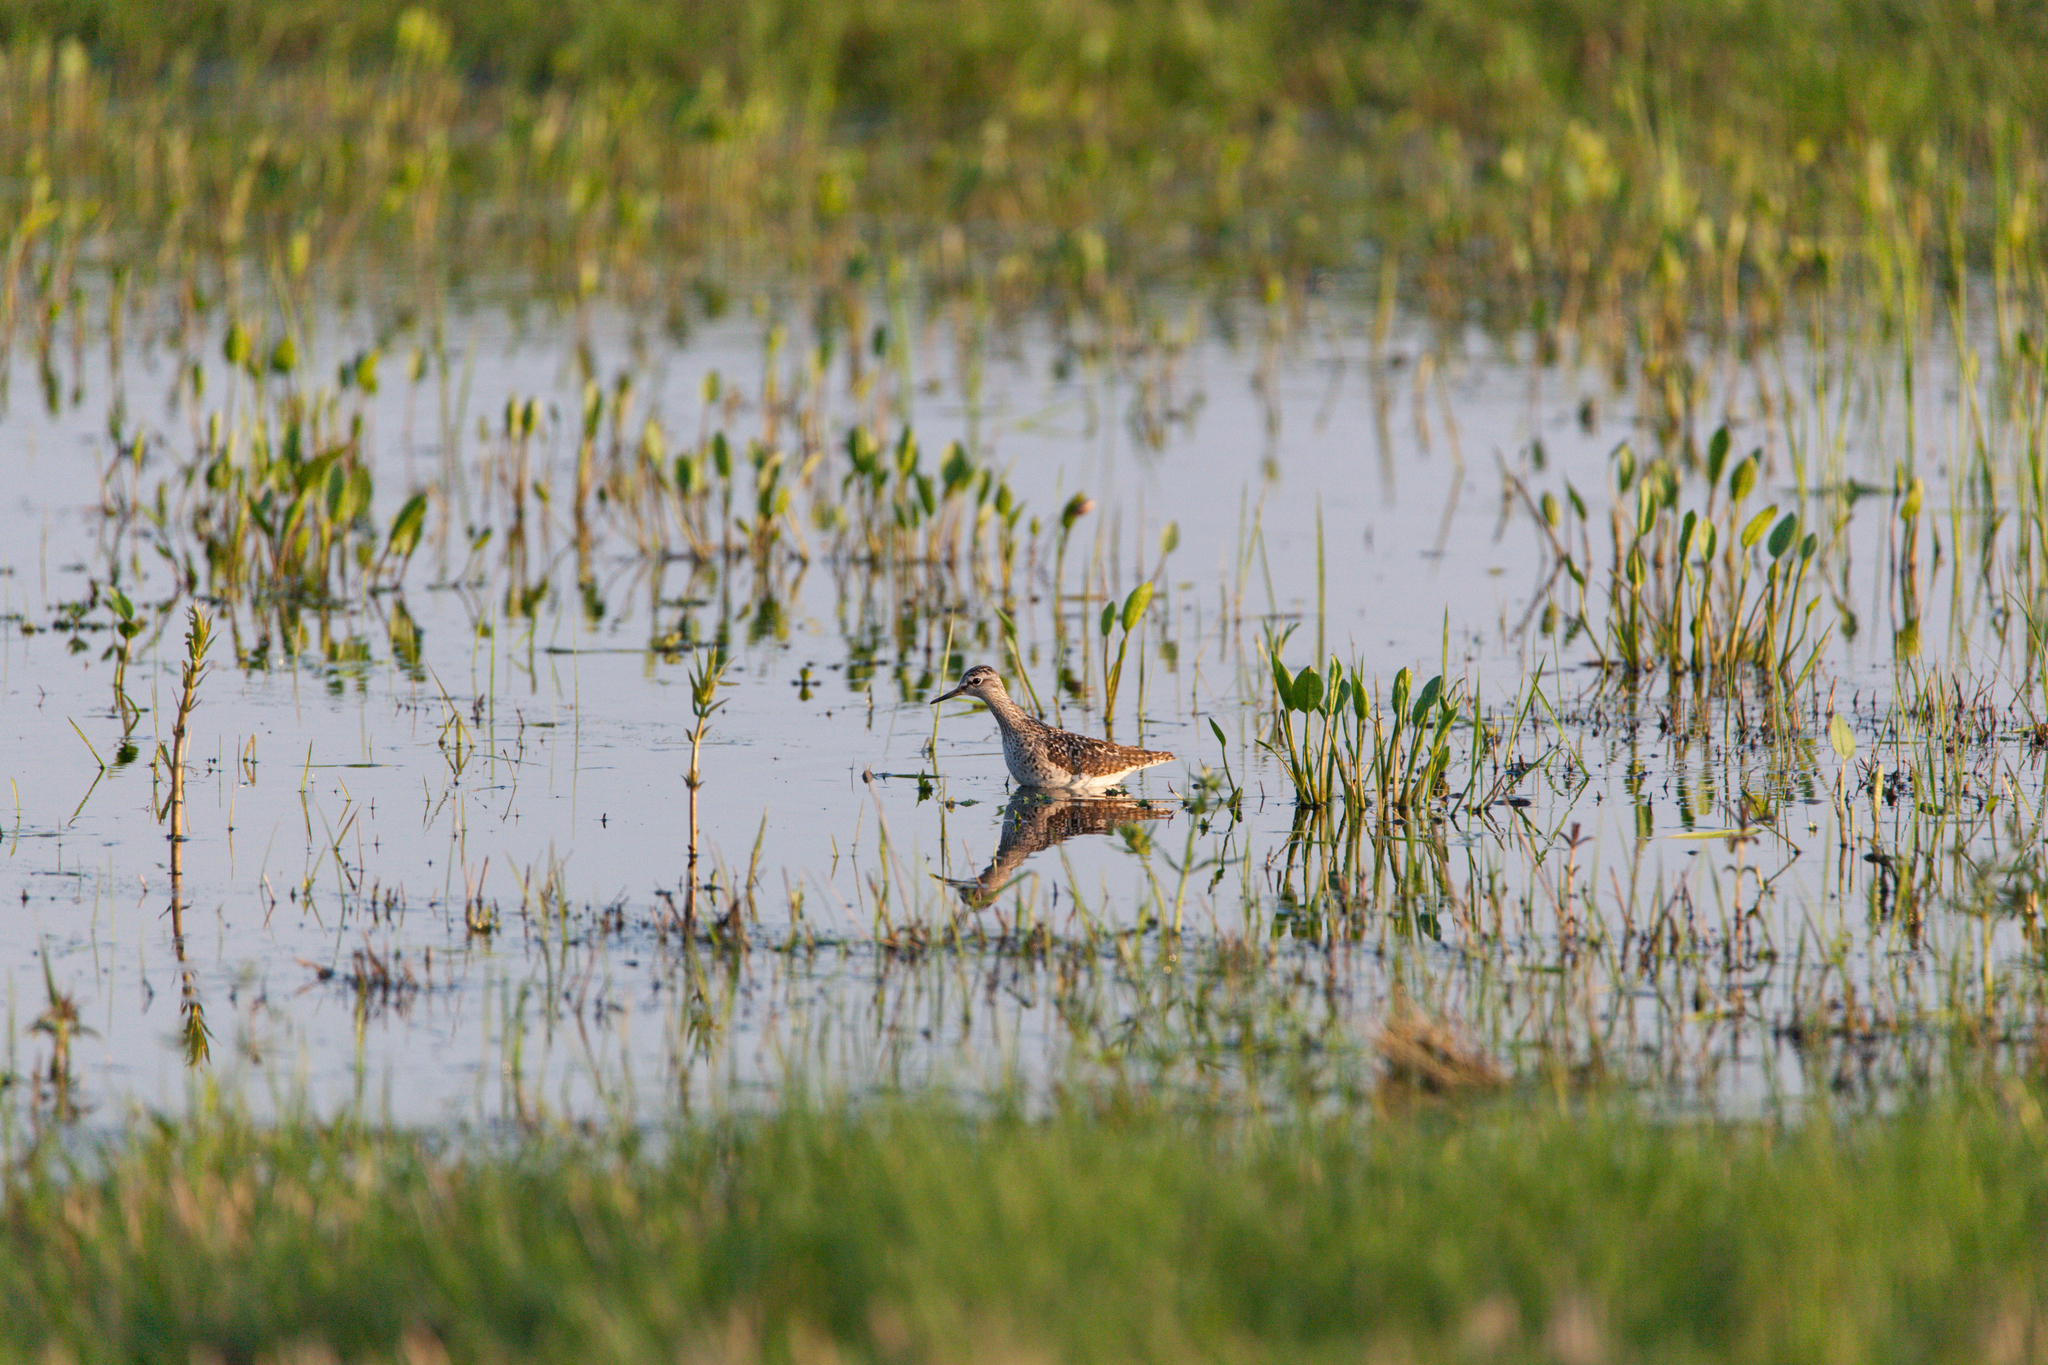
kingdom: Animalia
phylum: Chordata
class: Aves
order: Charadriiformes
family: Scolopacidae
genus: Tringa
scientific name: Tringa glareola
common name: Wood sandpiper
